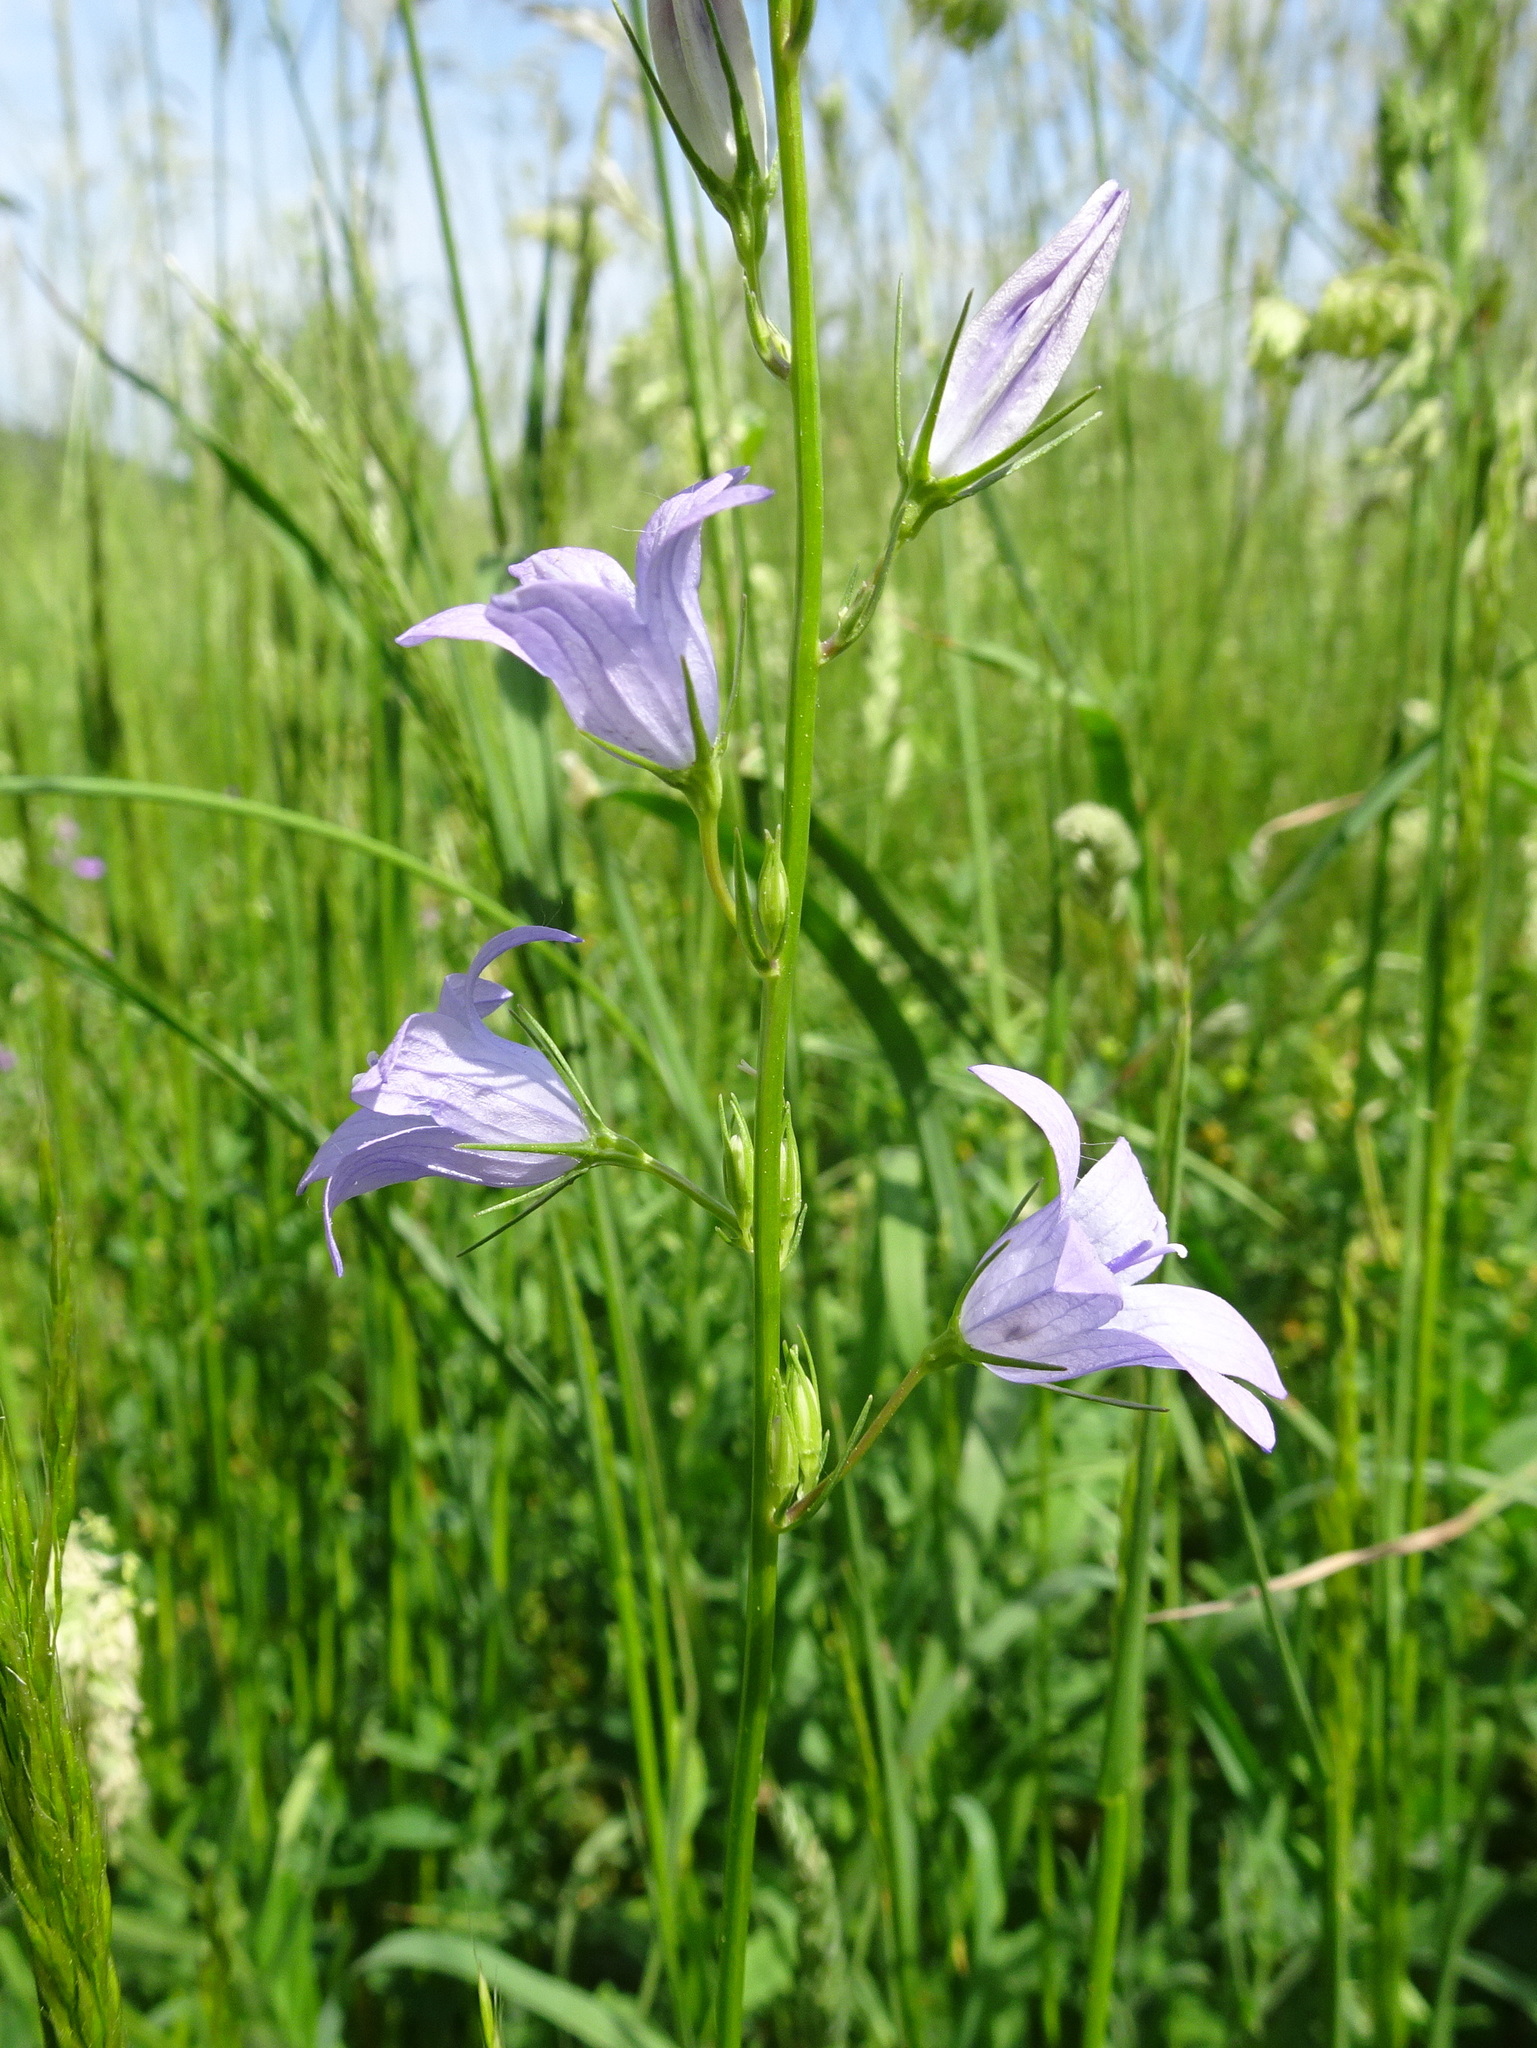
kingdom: Plantae
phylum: Tracheophyta
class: Magnoliopsida
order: Asterales
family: Campanulaceae
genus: Campanula
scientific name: Campanula rapunculus
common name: Rampion bellflower
